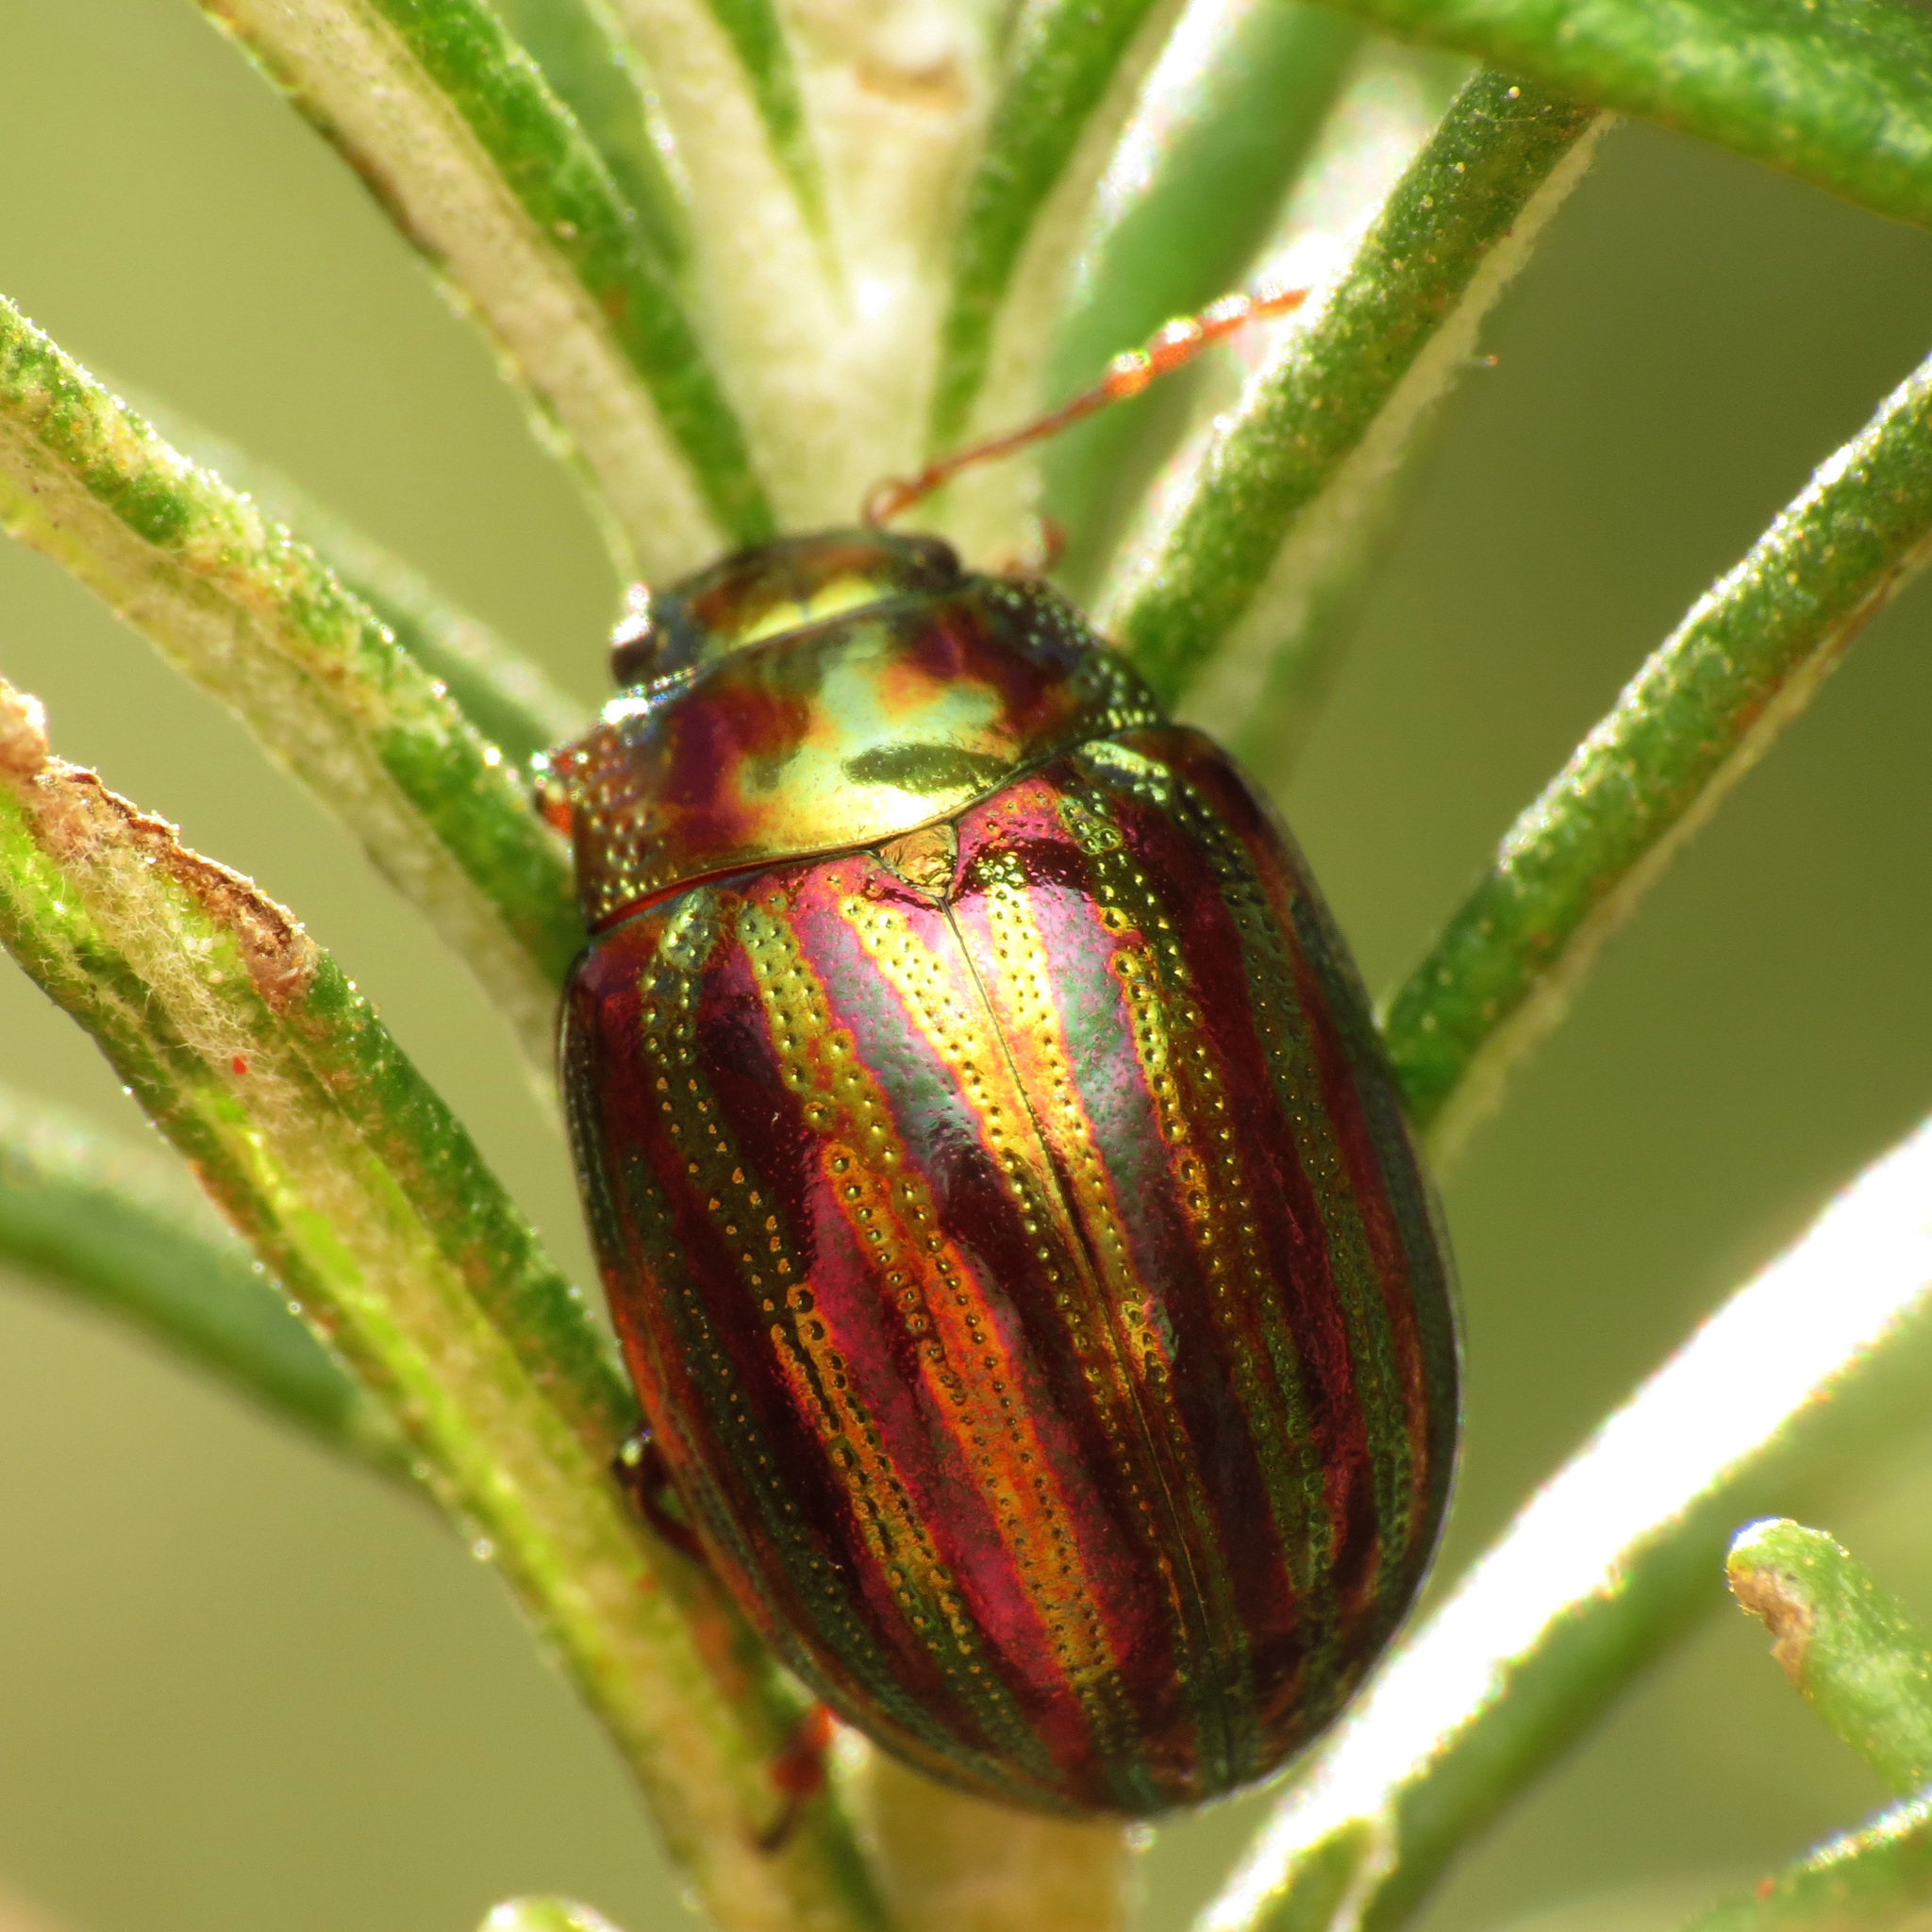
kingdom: Animalia
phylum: Arthropoda
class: Insecta
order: Coleoptera
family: Chrysomelidae
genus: Chrysolina
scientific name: Chrysolina americana
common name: Rosemary beetle
